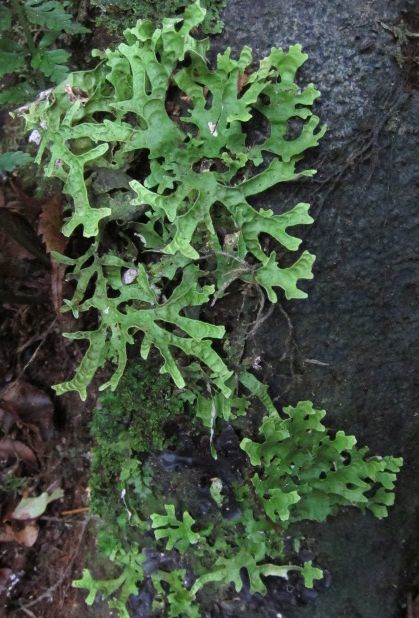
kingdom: Fungi
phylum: Ascomycota
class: Lecanoromycetes
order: Peltigerales
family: Lobariaceae
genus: Pseudocyphellaria
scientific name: Pseudocyphellaria rufovirescens
